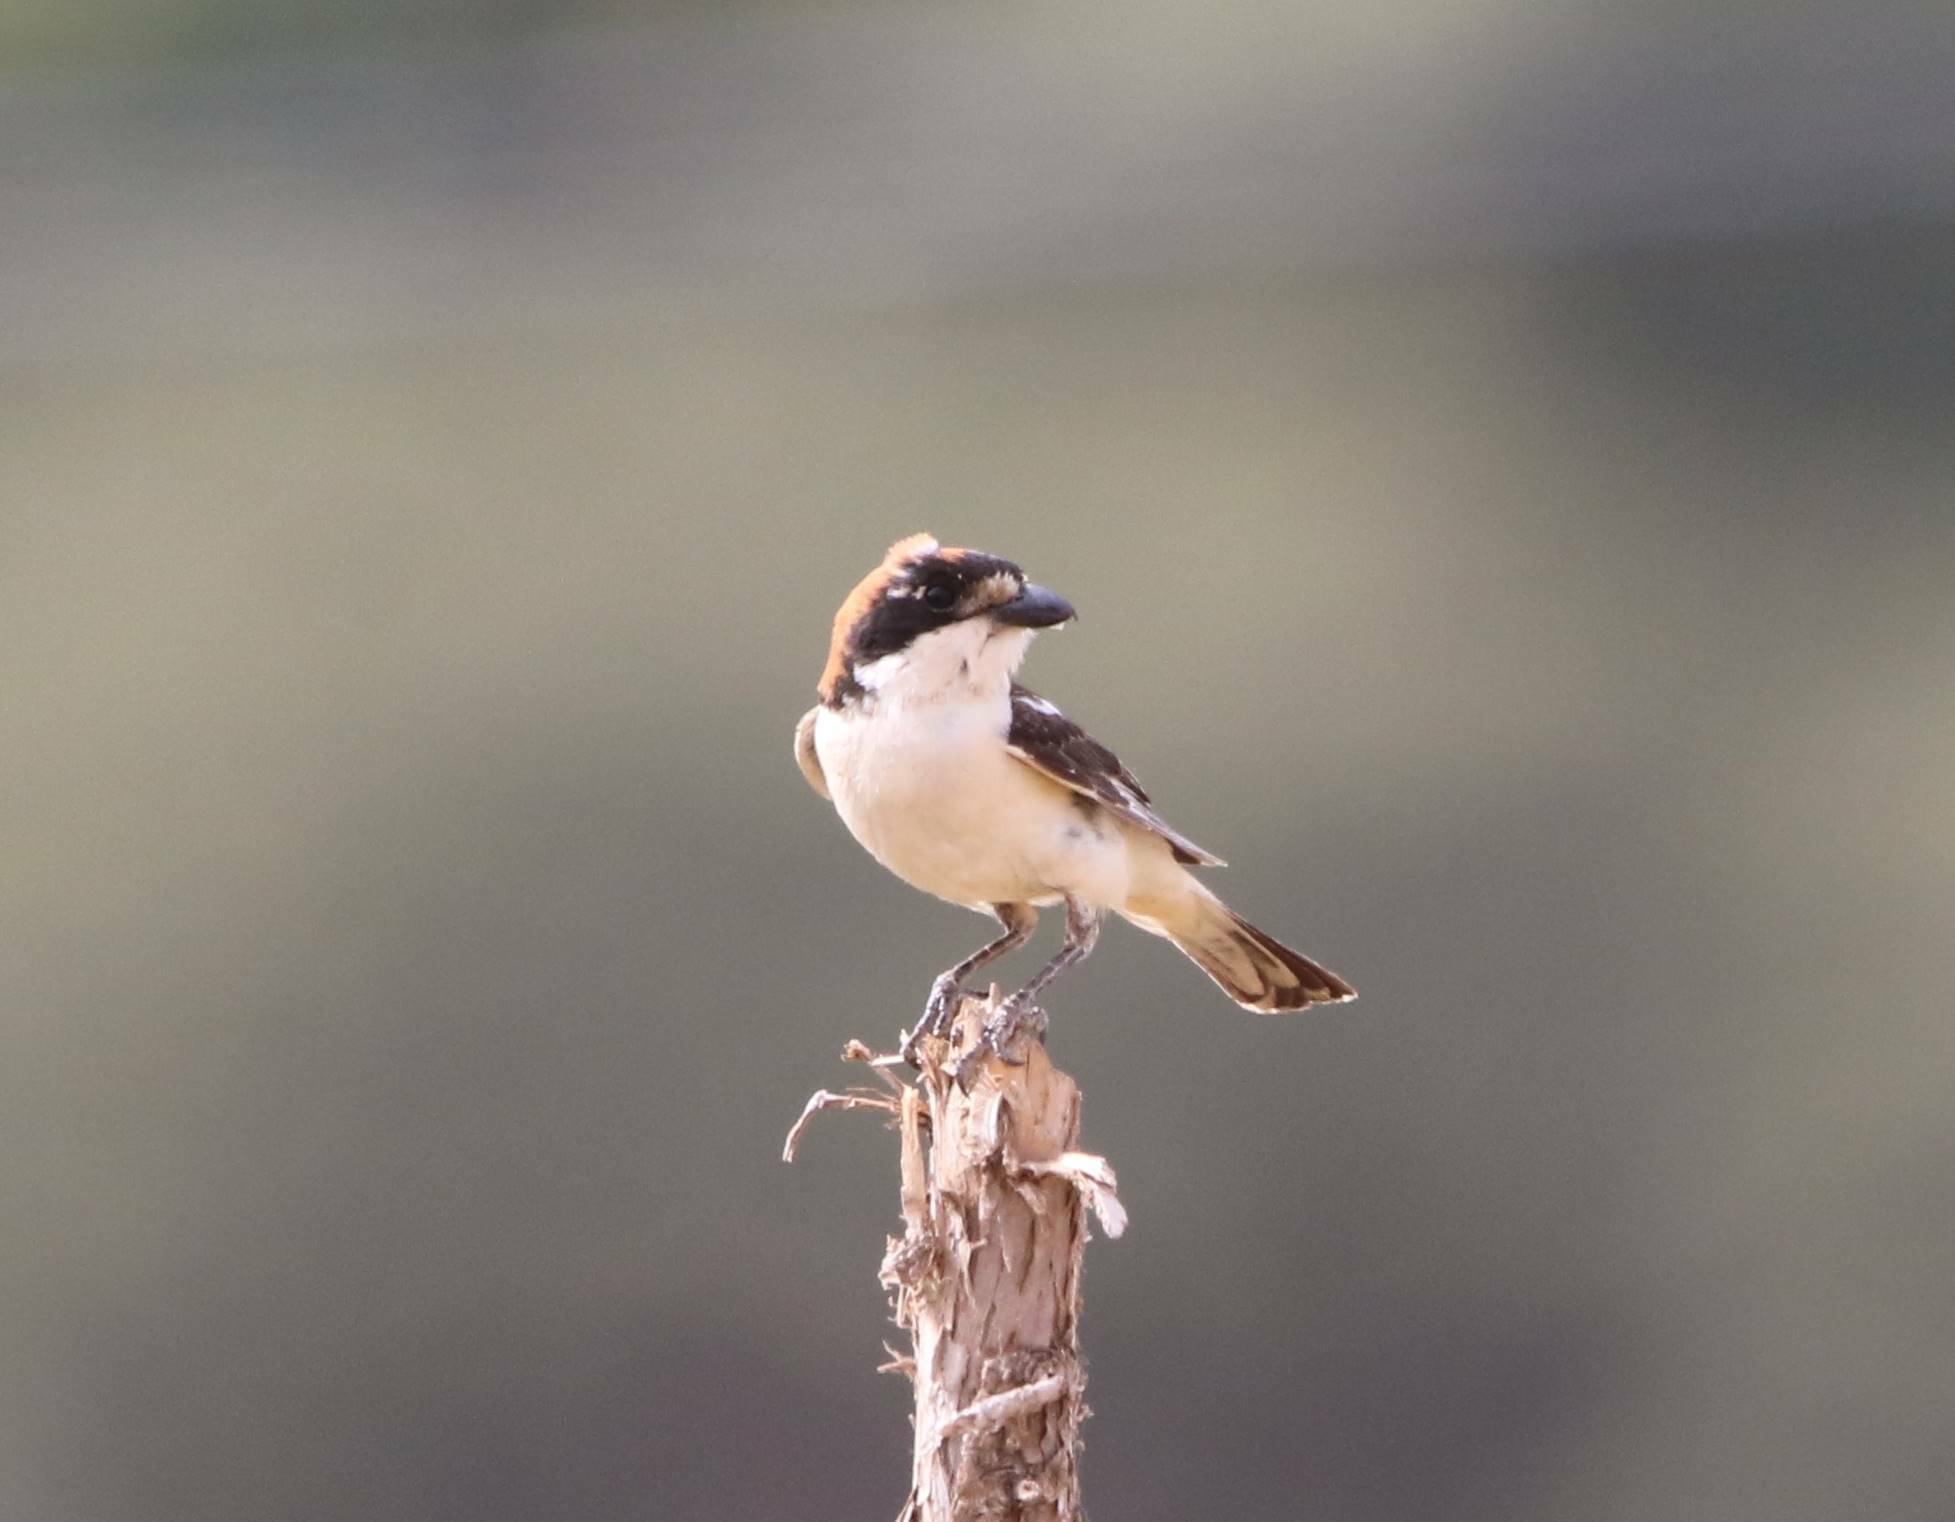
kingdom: Animalia
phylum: Chordata
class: Aves
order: Passeriformes
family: Laniidae
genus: Lanius
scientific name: Lanius senator
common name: Woodchat shrike
